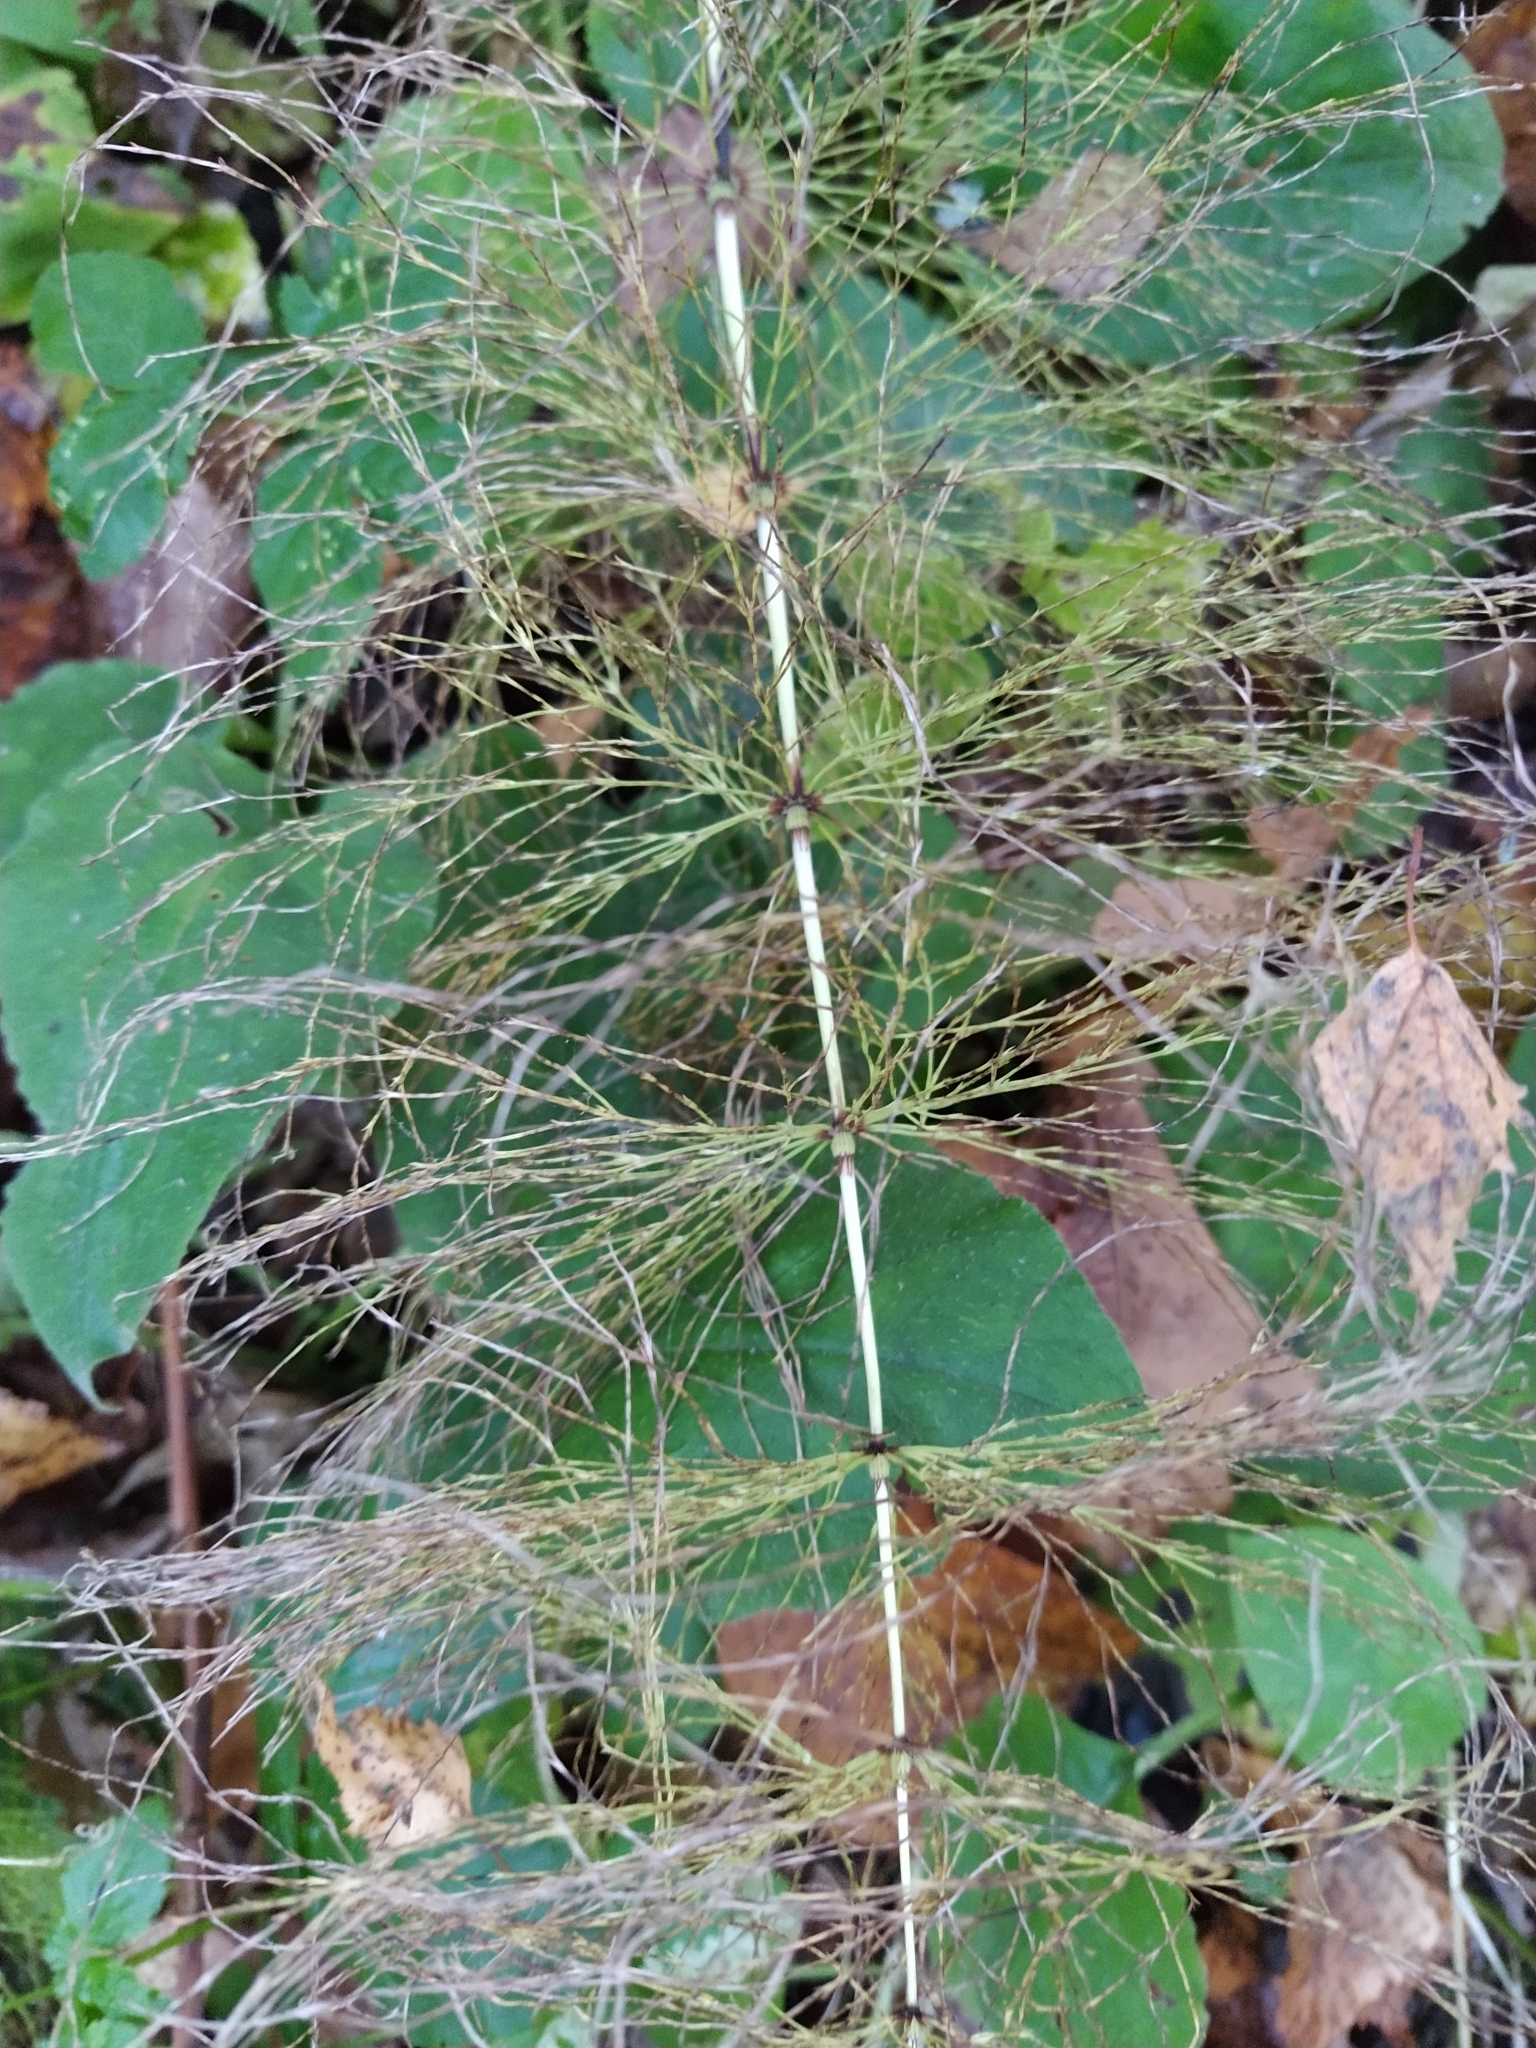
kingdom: Plantae
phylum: Tracheophyta
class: Polypodiopsida
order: Equisetales
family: Equisetaceae
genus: Equisetum
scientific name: Equisetum sylvaticum
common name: Wood horsetail
